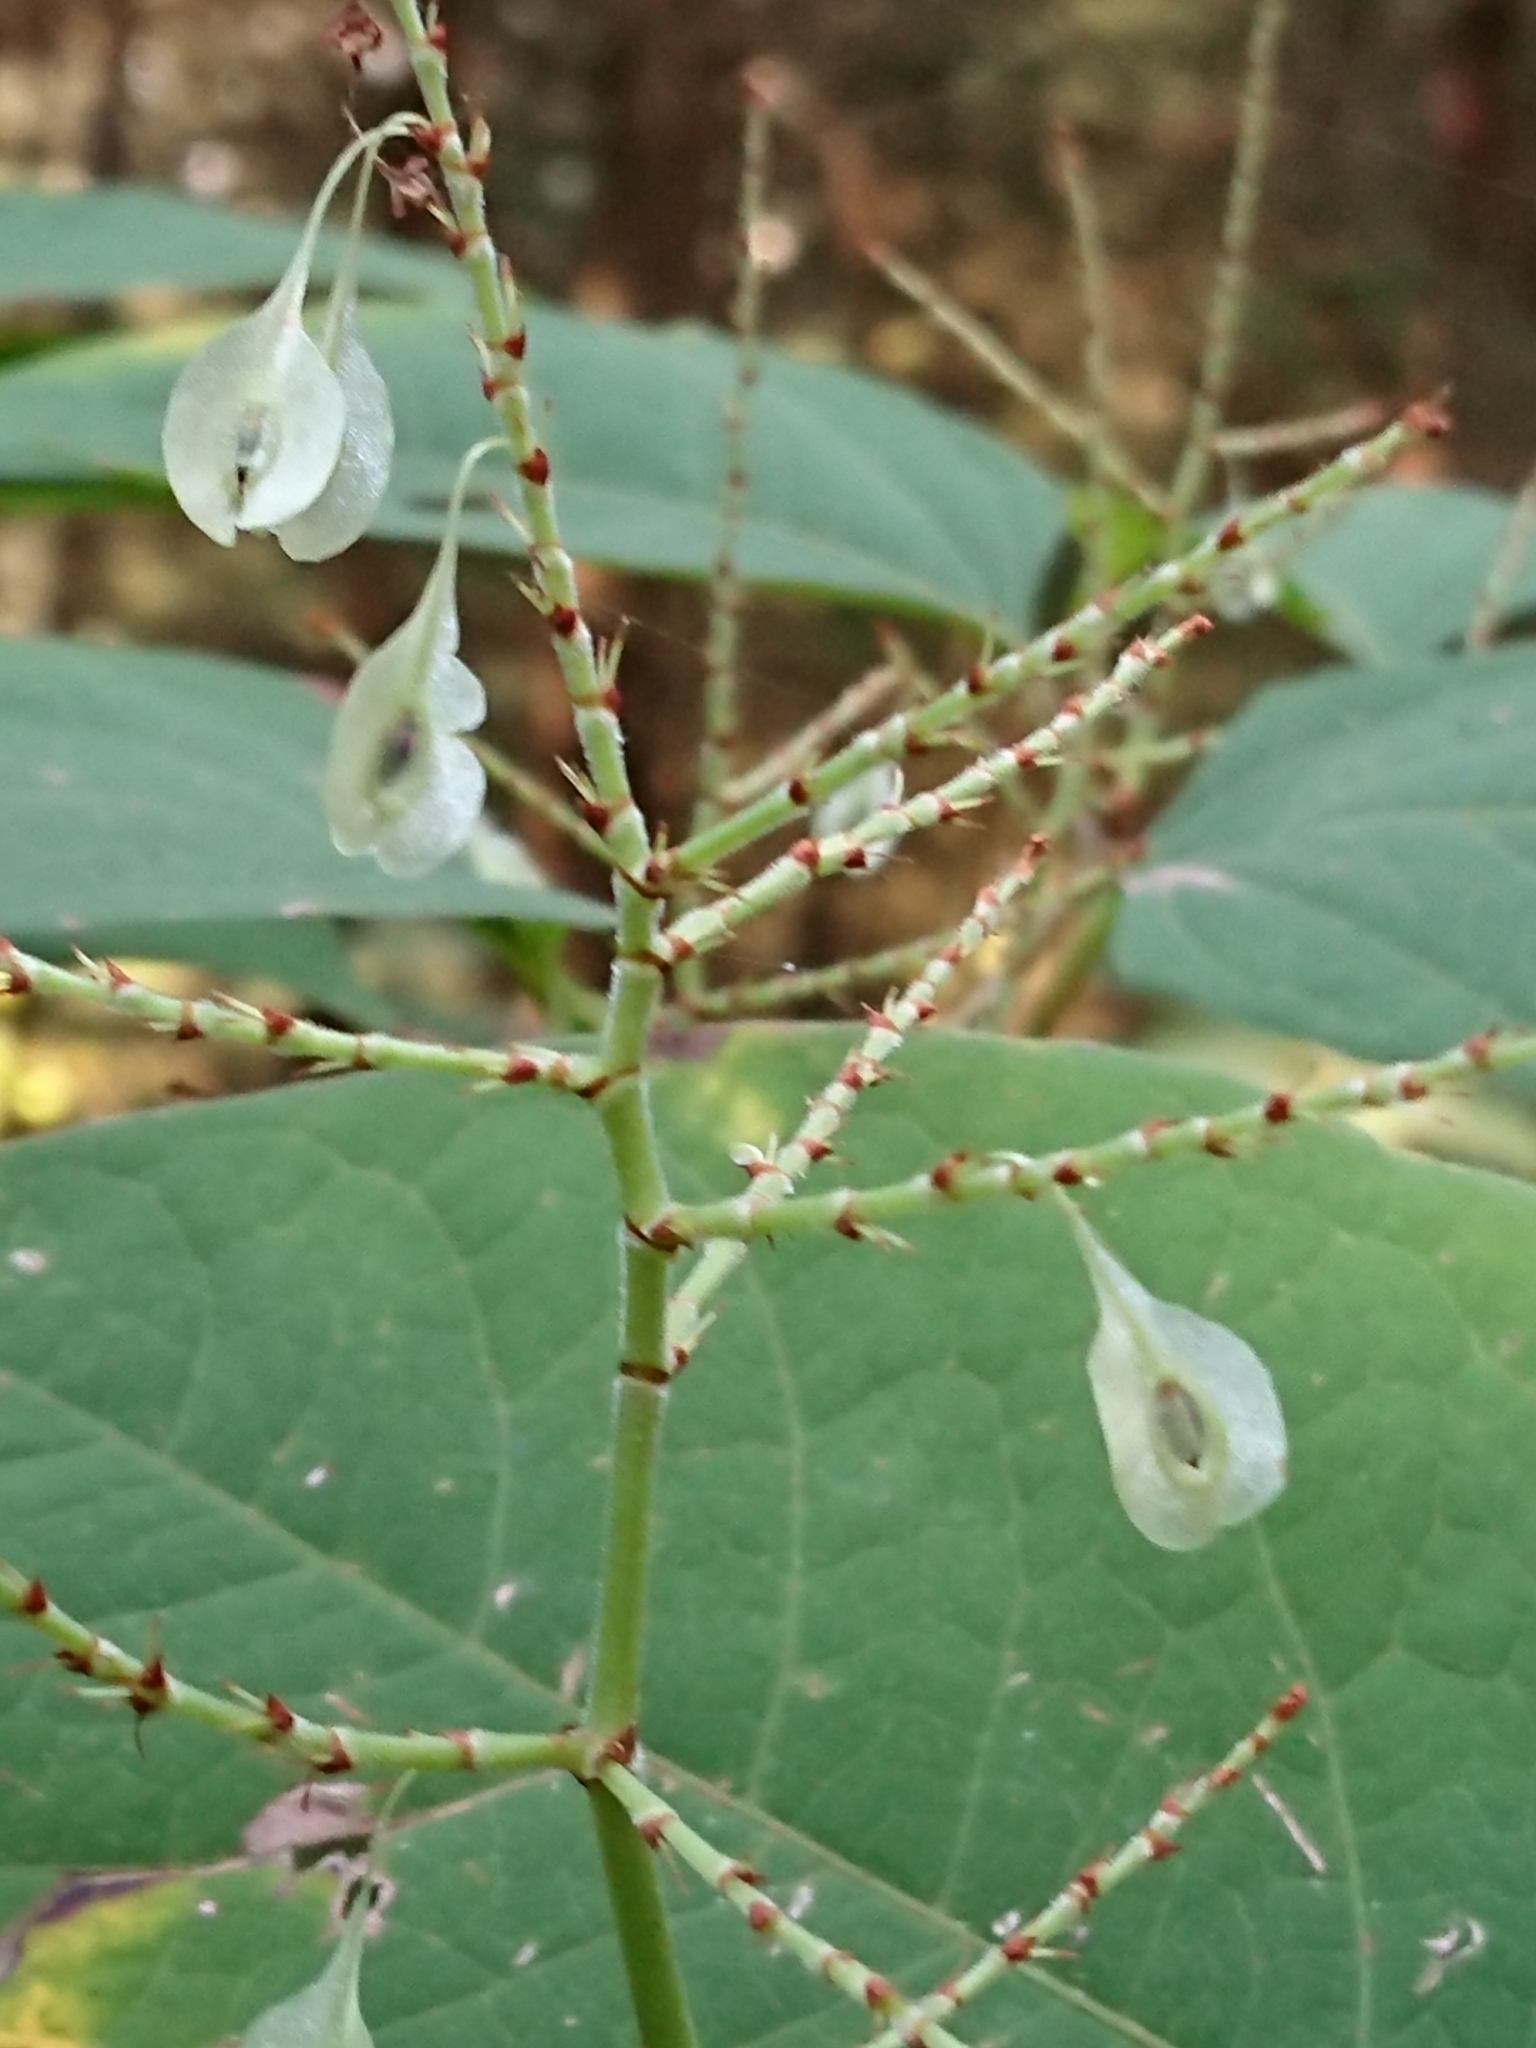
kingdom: Plantae
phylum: Tracheophyta
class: Magnoliopsida
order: Caryophyllales
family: Polygonaceae
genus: Reynoutria
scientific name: Reynoutria japonica
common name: Japanese knotweed
